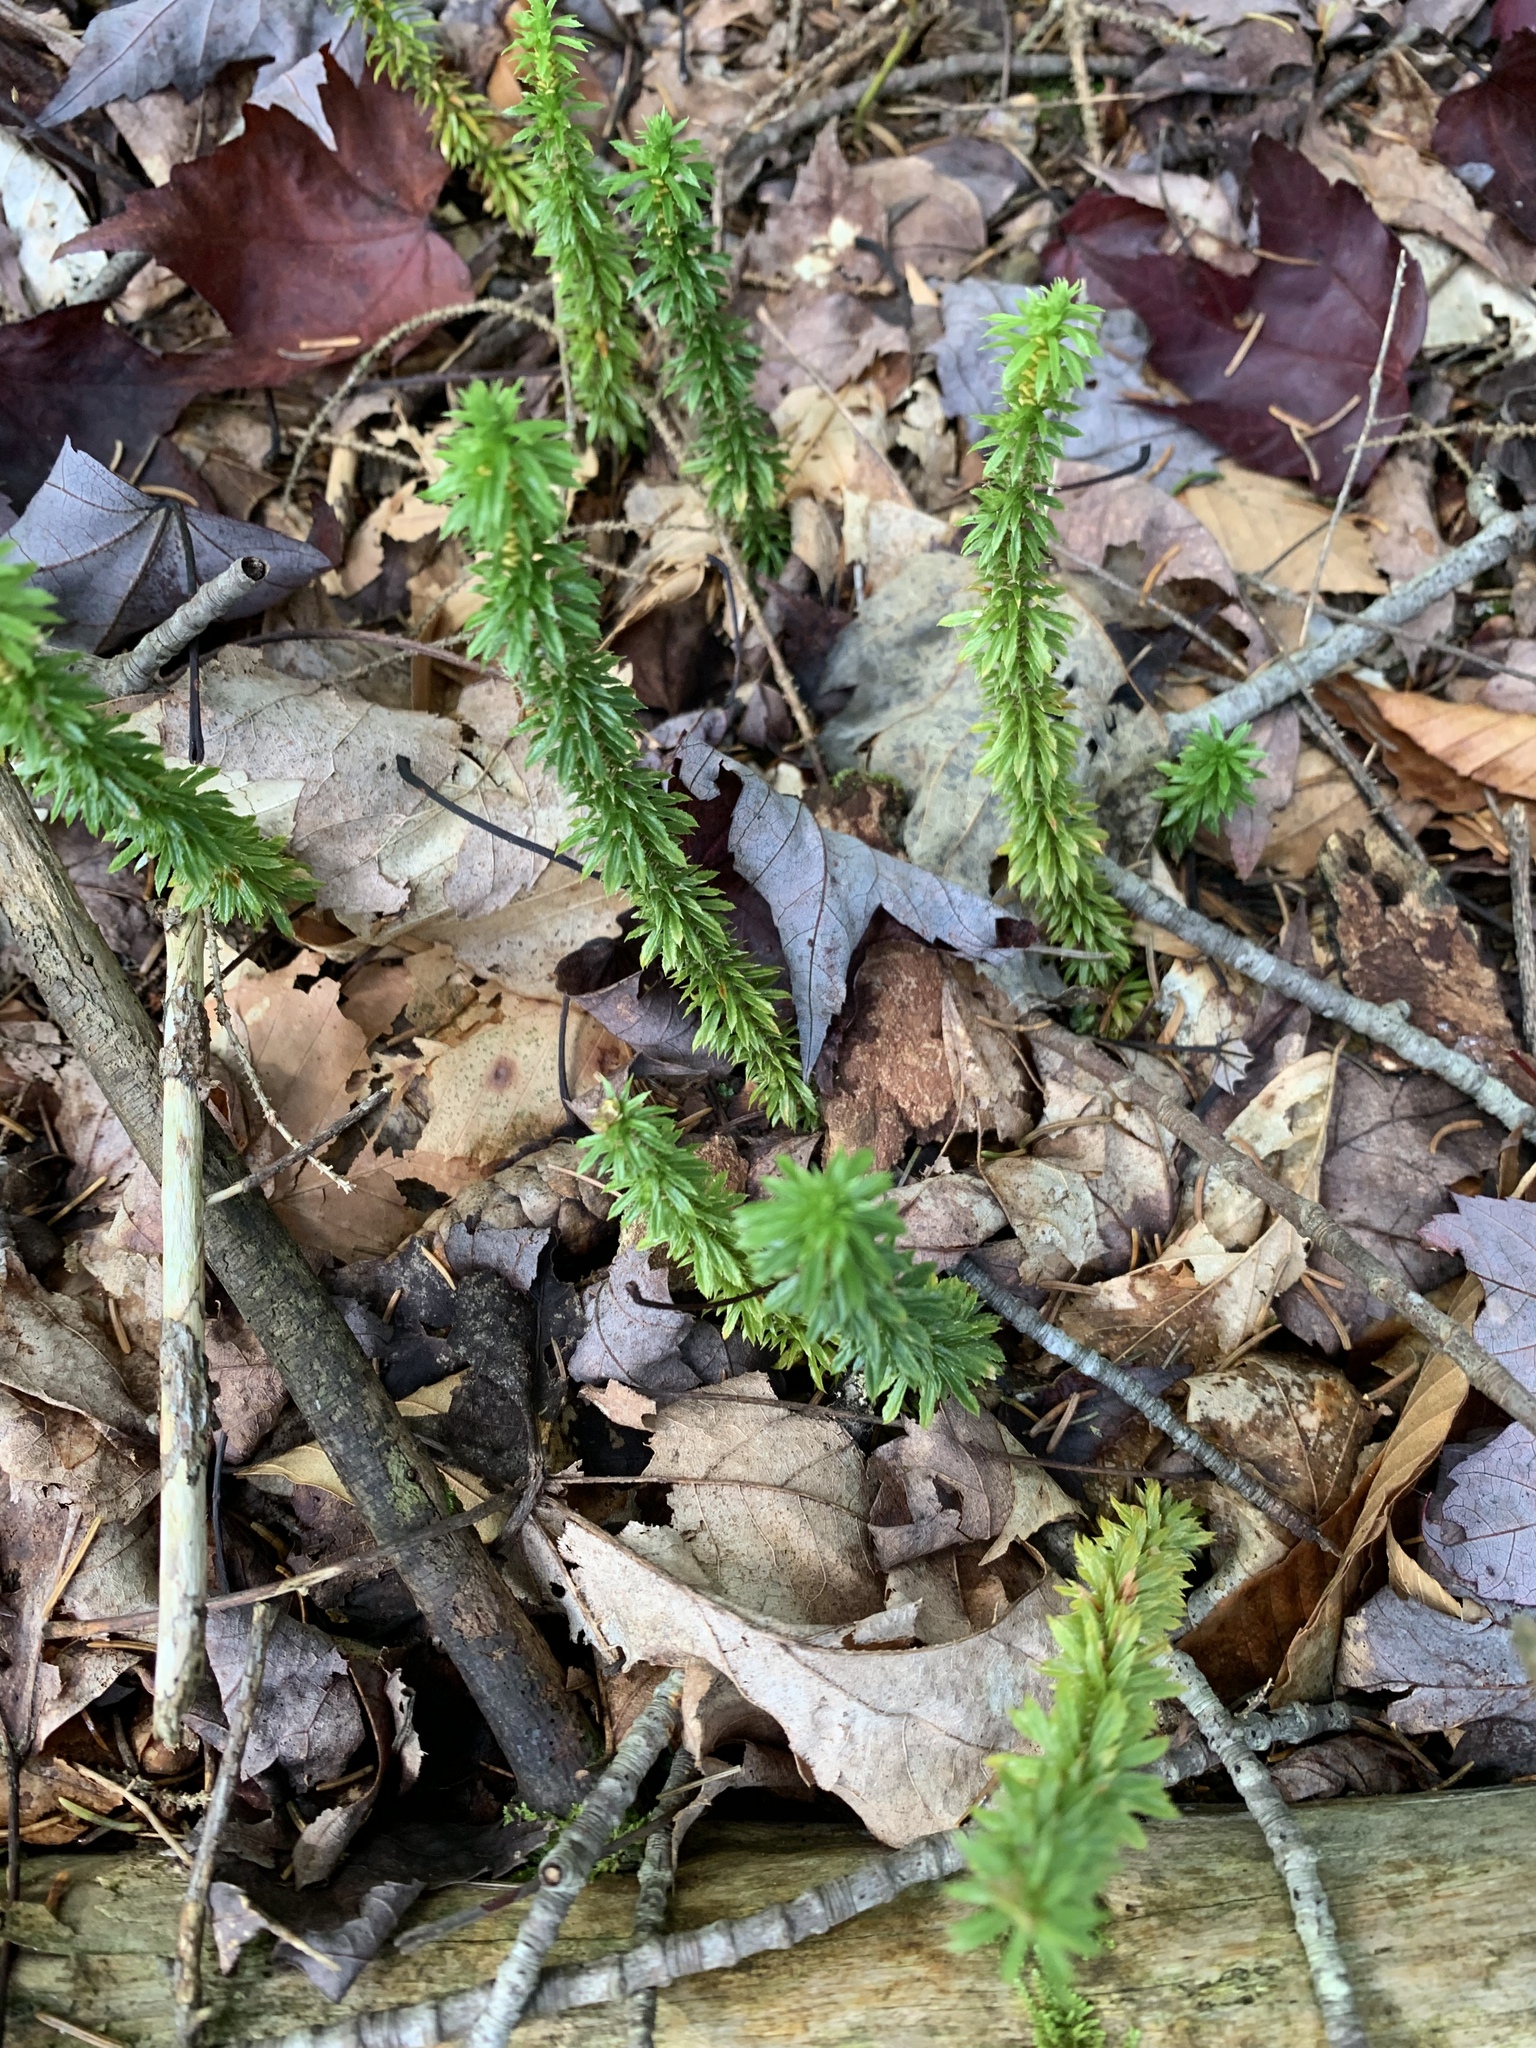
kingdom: Plantae
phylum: Tracheophyta
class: Lycopodiopsida
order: Lycopodiales
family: Lycopodiaceae
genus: Huperzia
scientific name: Huperzia lucidula
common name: Shining clubmoss
